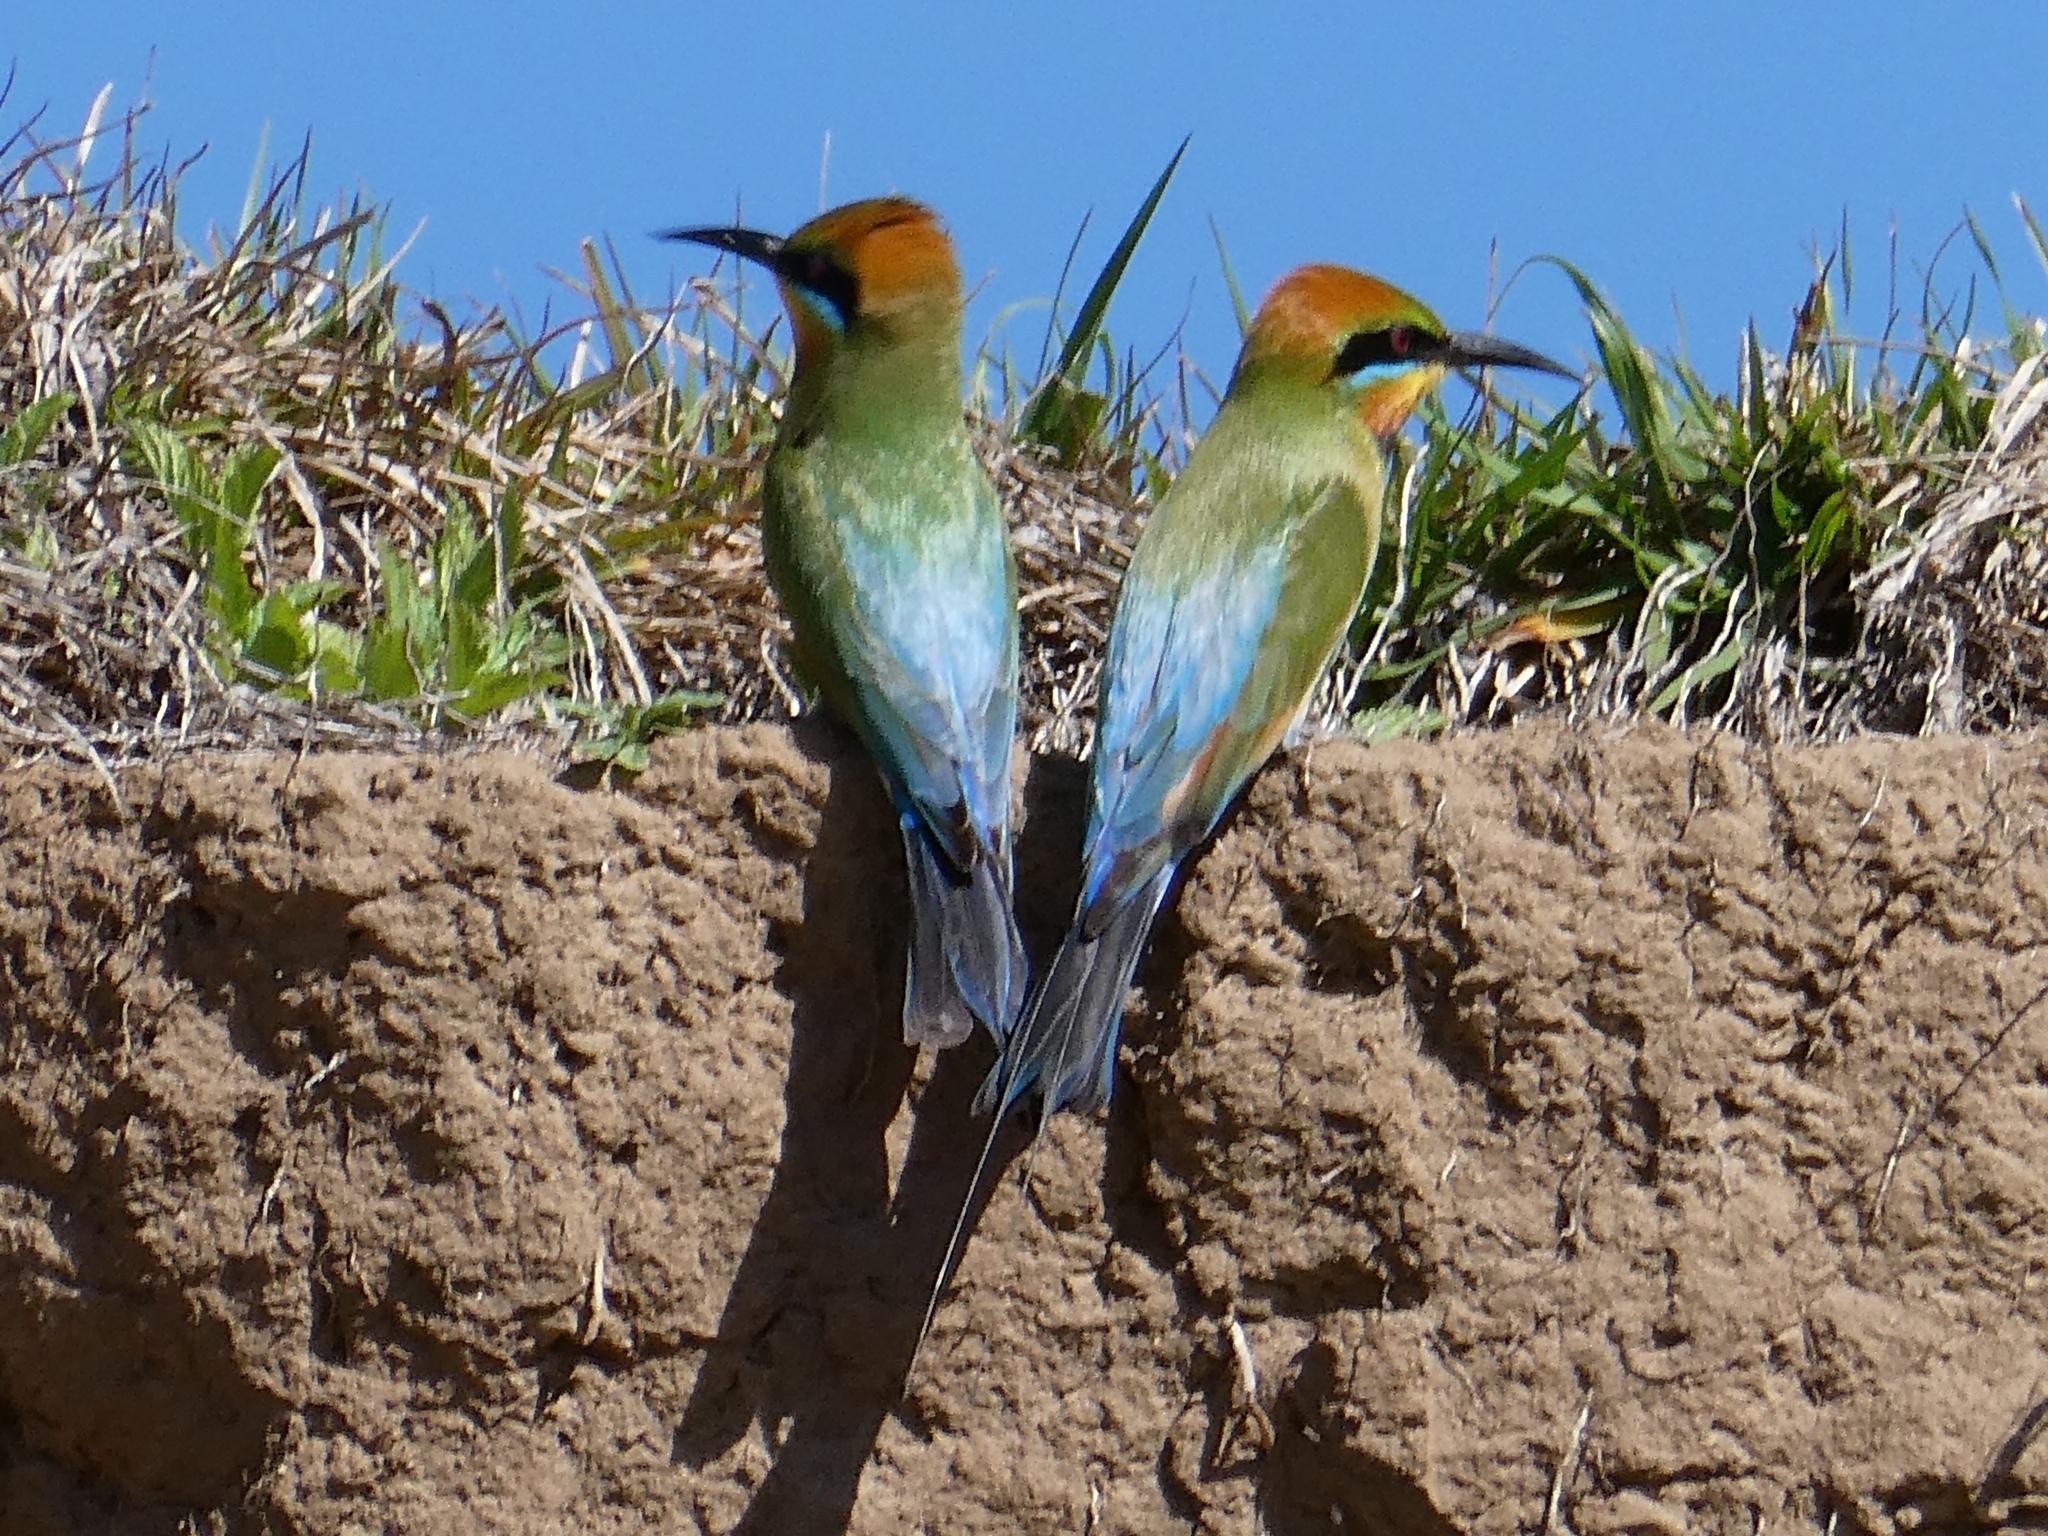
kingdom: Animalia
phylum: Chordata
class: Aves
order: Coraciiformes
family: Meropidae
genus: Merops
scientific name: Merops ornatus
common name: Rainbow bee-eater
